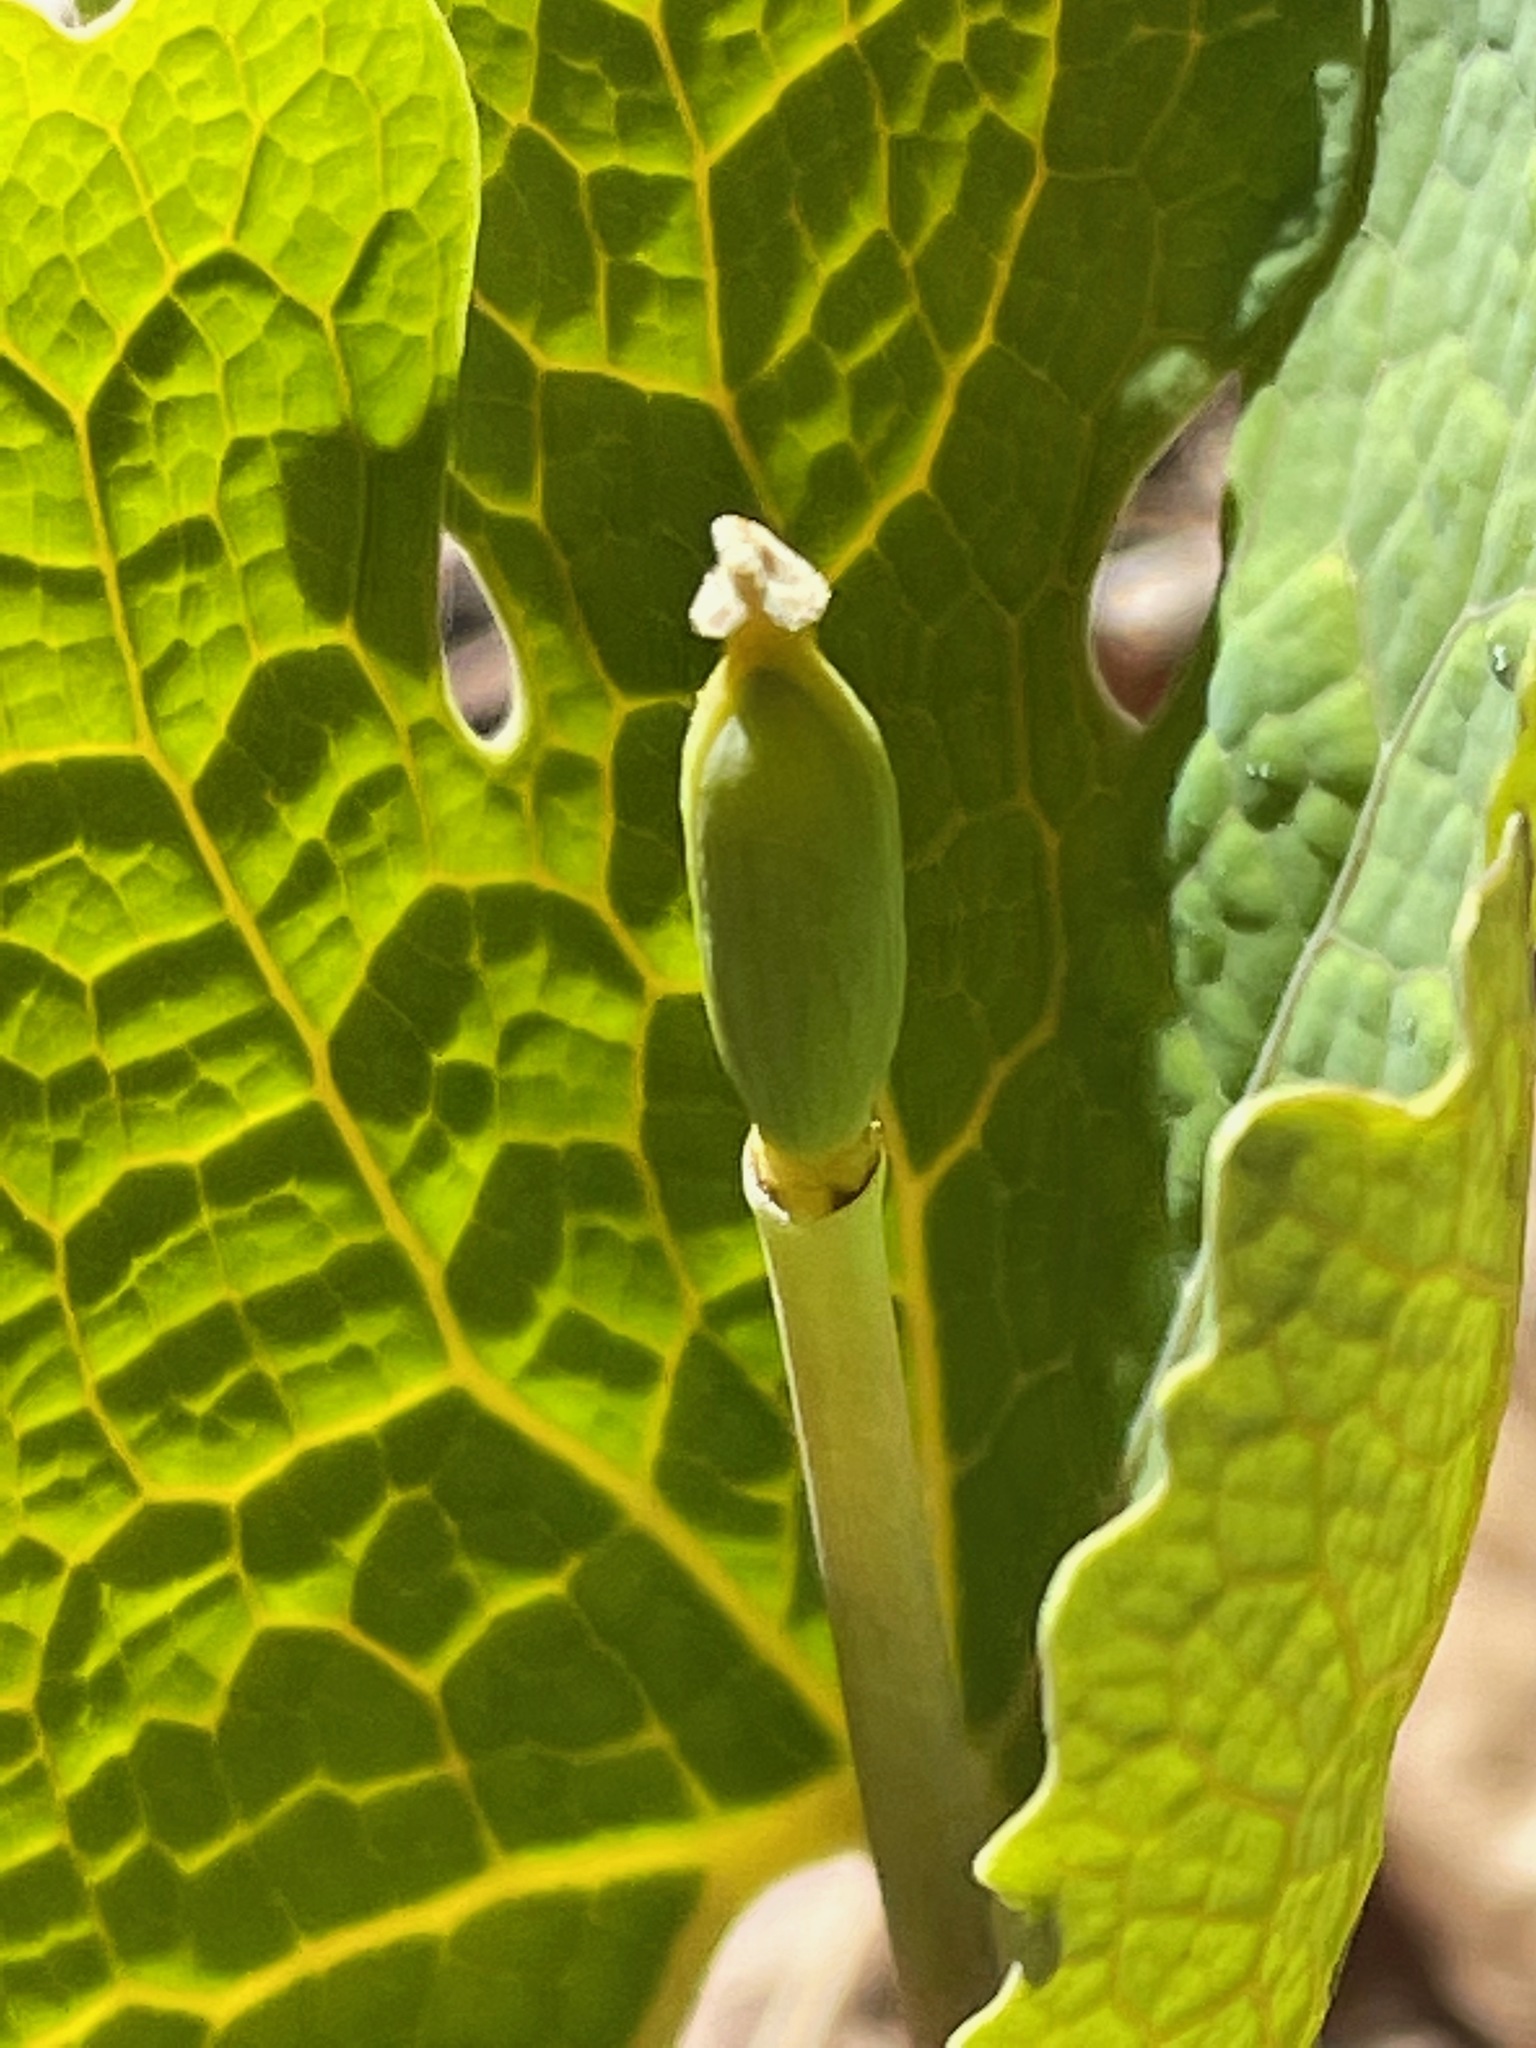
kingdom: Plantae
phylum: Tracheophyta
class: Magnoliopsida
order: Ranunculales
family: Papaveraceae
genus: Sanguinaria
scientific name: Sanguinaria canadensis
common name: Bloodroot
